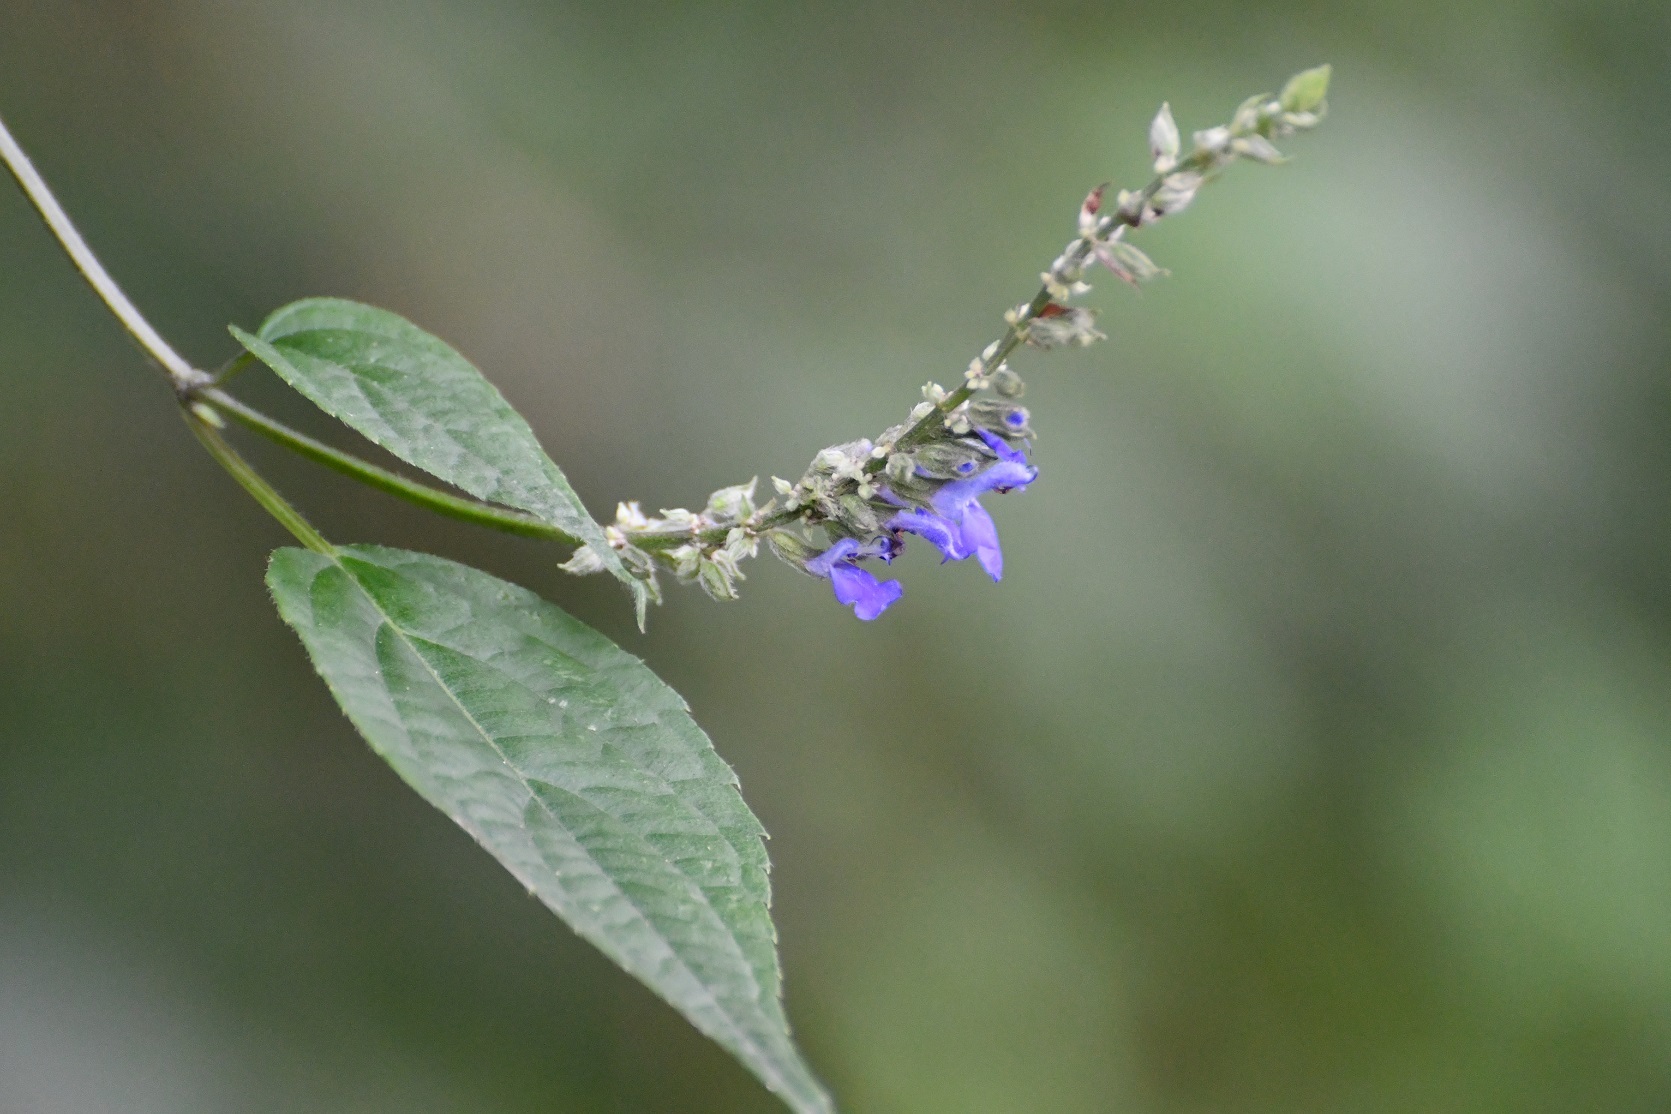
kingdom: Plantae
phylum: Tracheophyta
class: Magnoliopsida
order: Lamiales
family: Lamiaceae
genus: Salvia
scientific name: Salvia connivens
